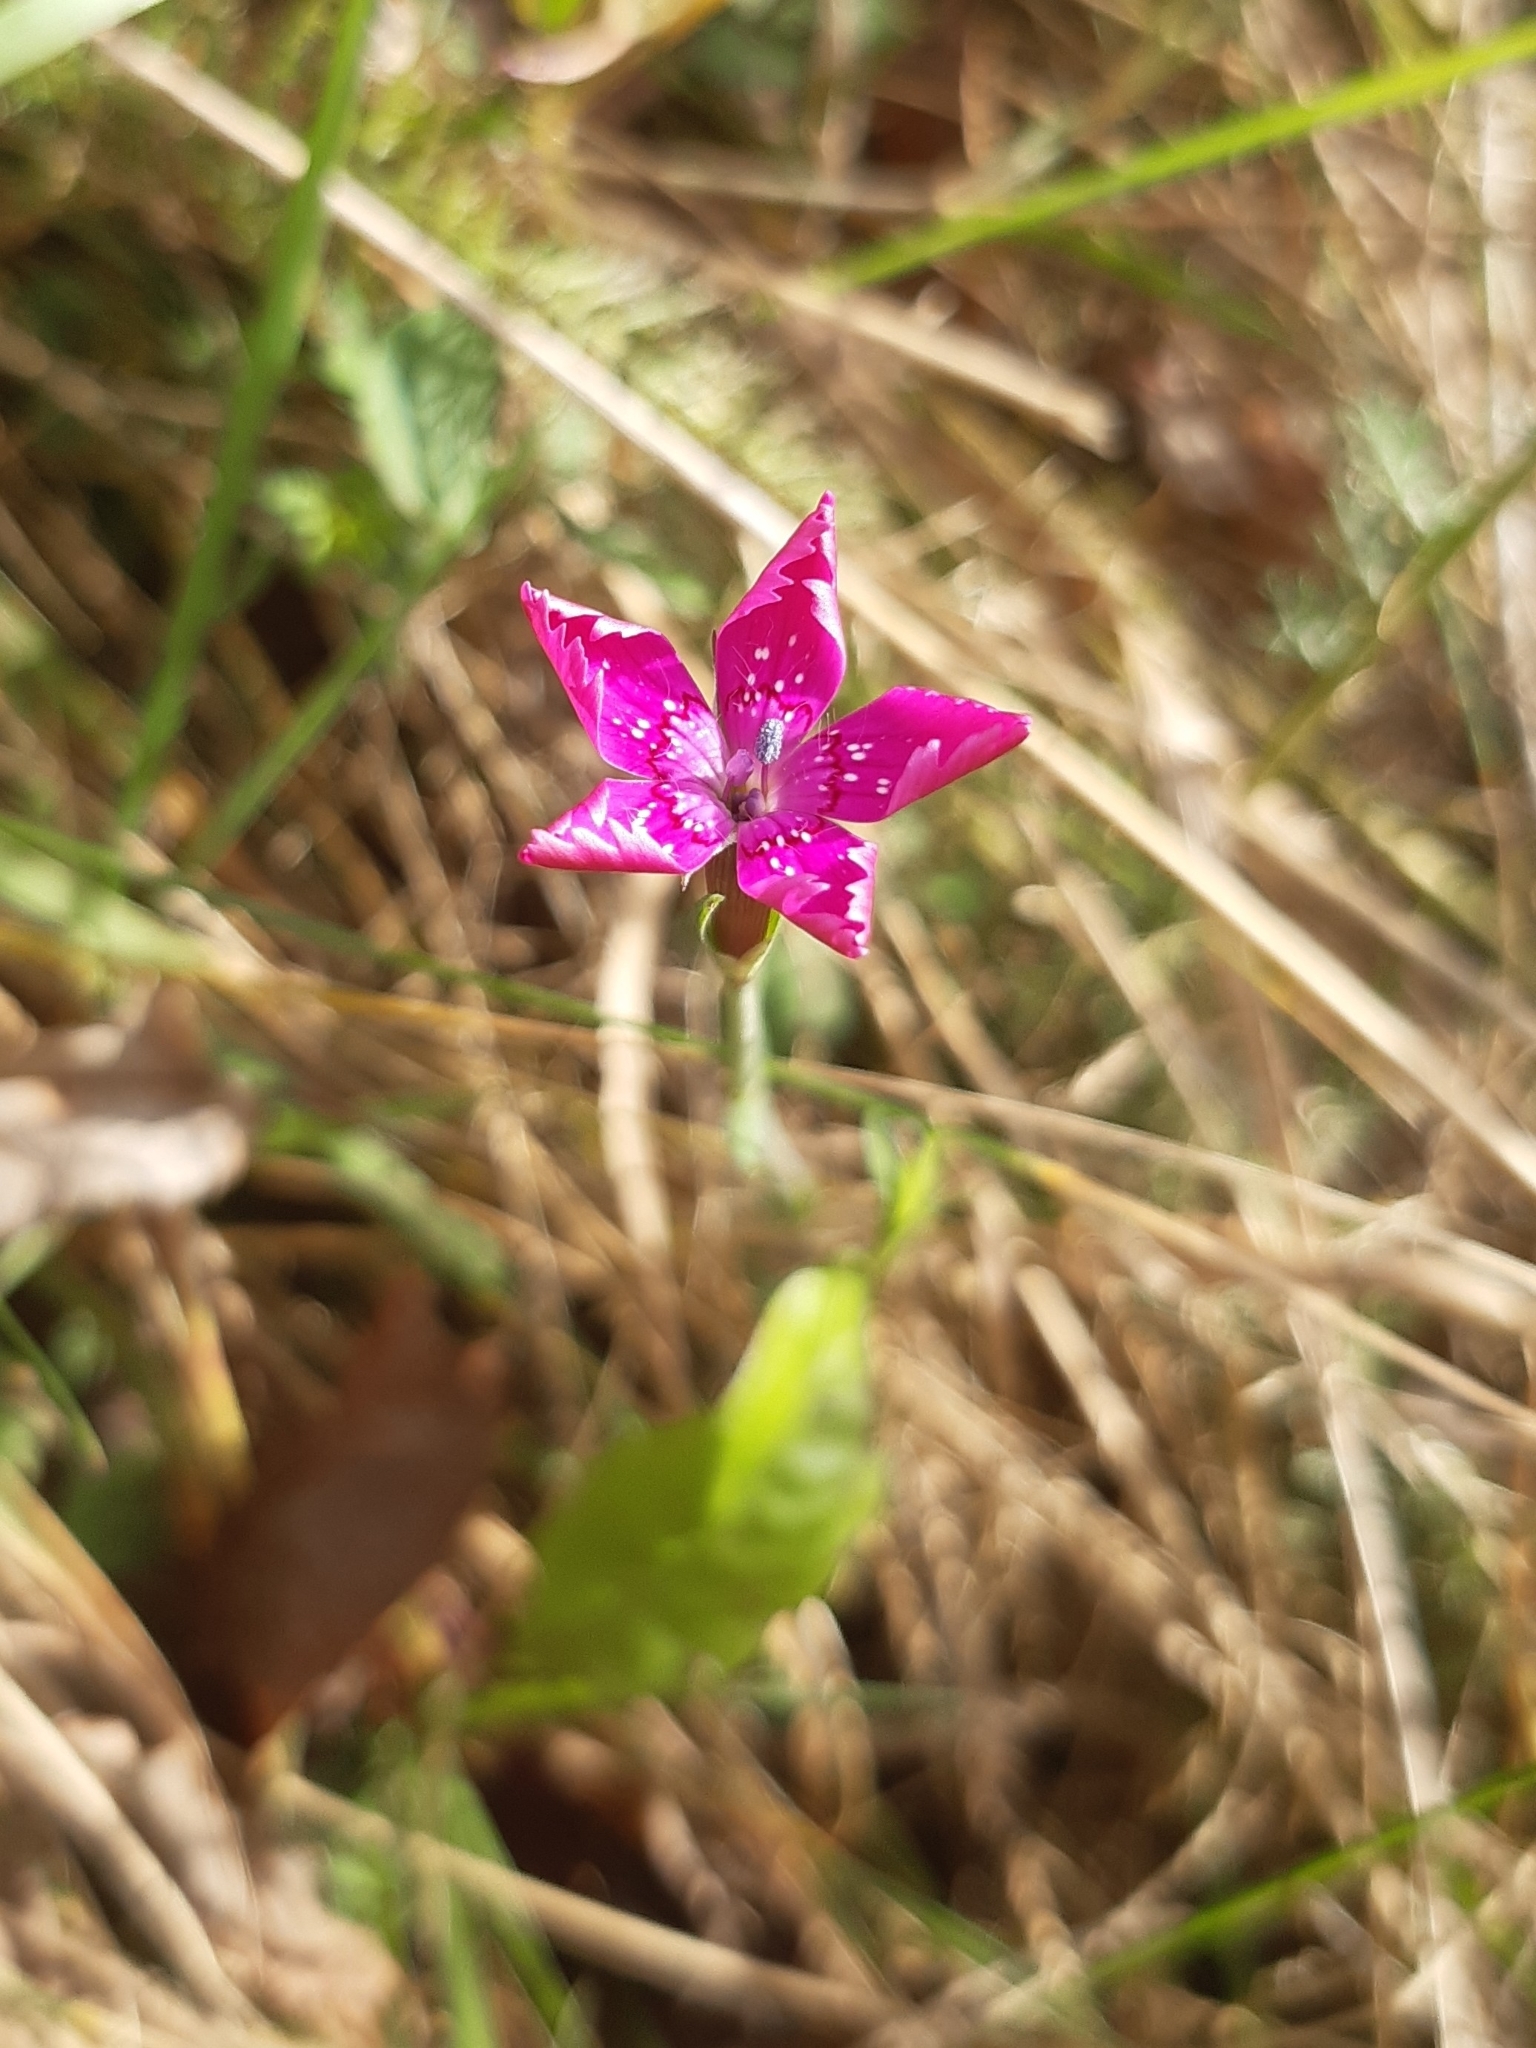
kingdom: Plantae
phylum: Tracheophyta
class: Magnoliopsida
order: Caryophyllales
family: Caryophyllaceae
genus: Dianthus
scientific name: Dianthus deltoides
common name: Maiden pink
